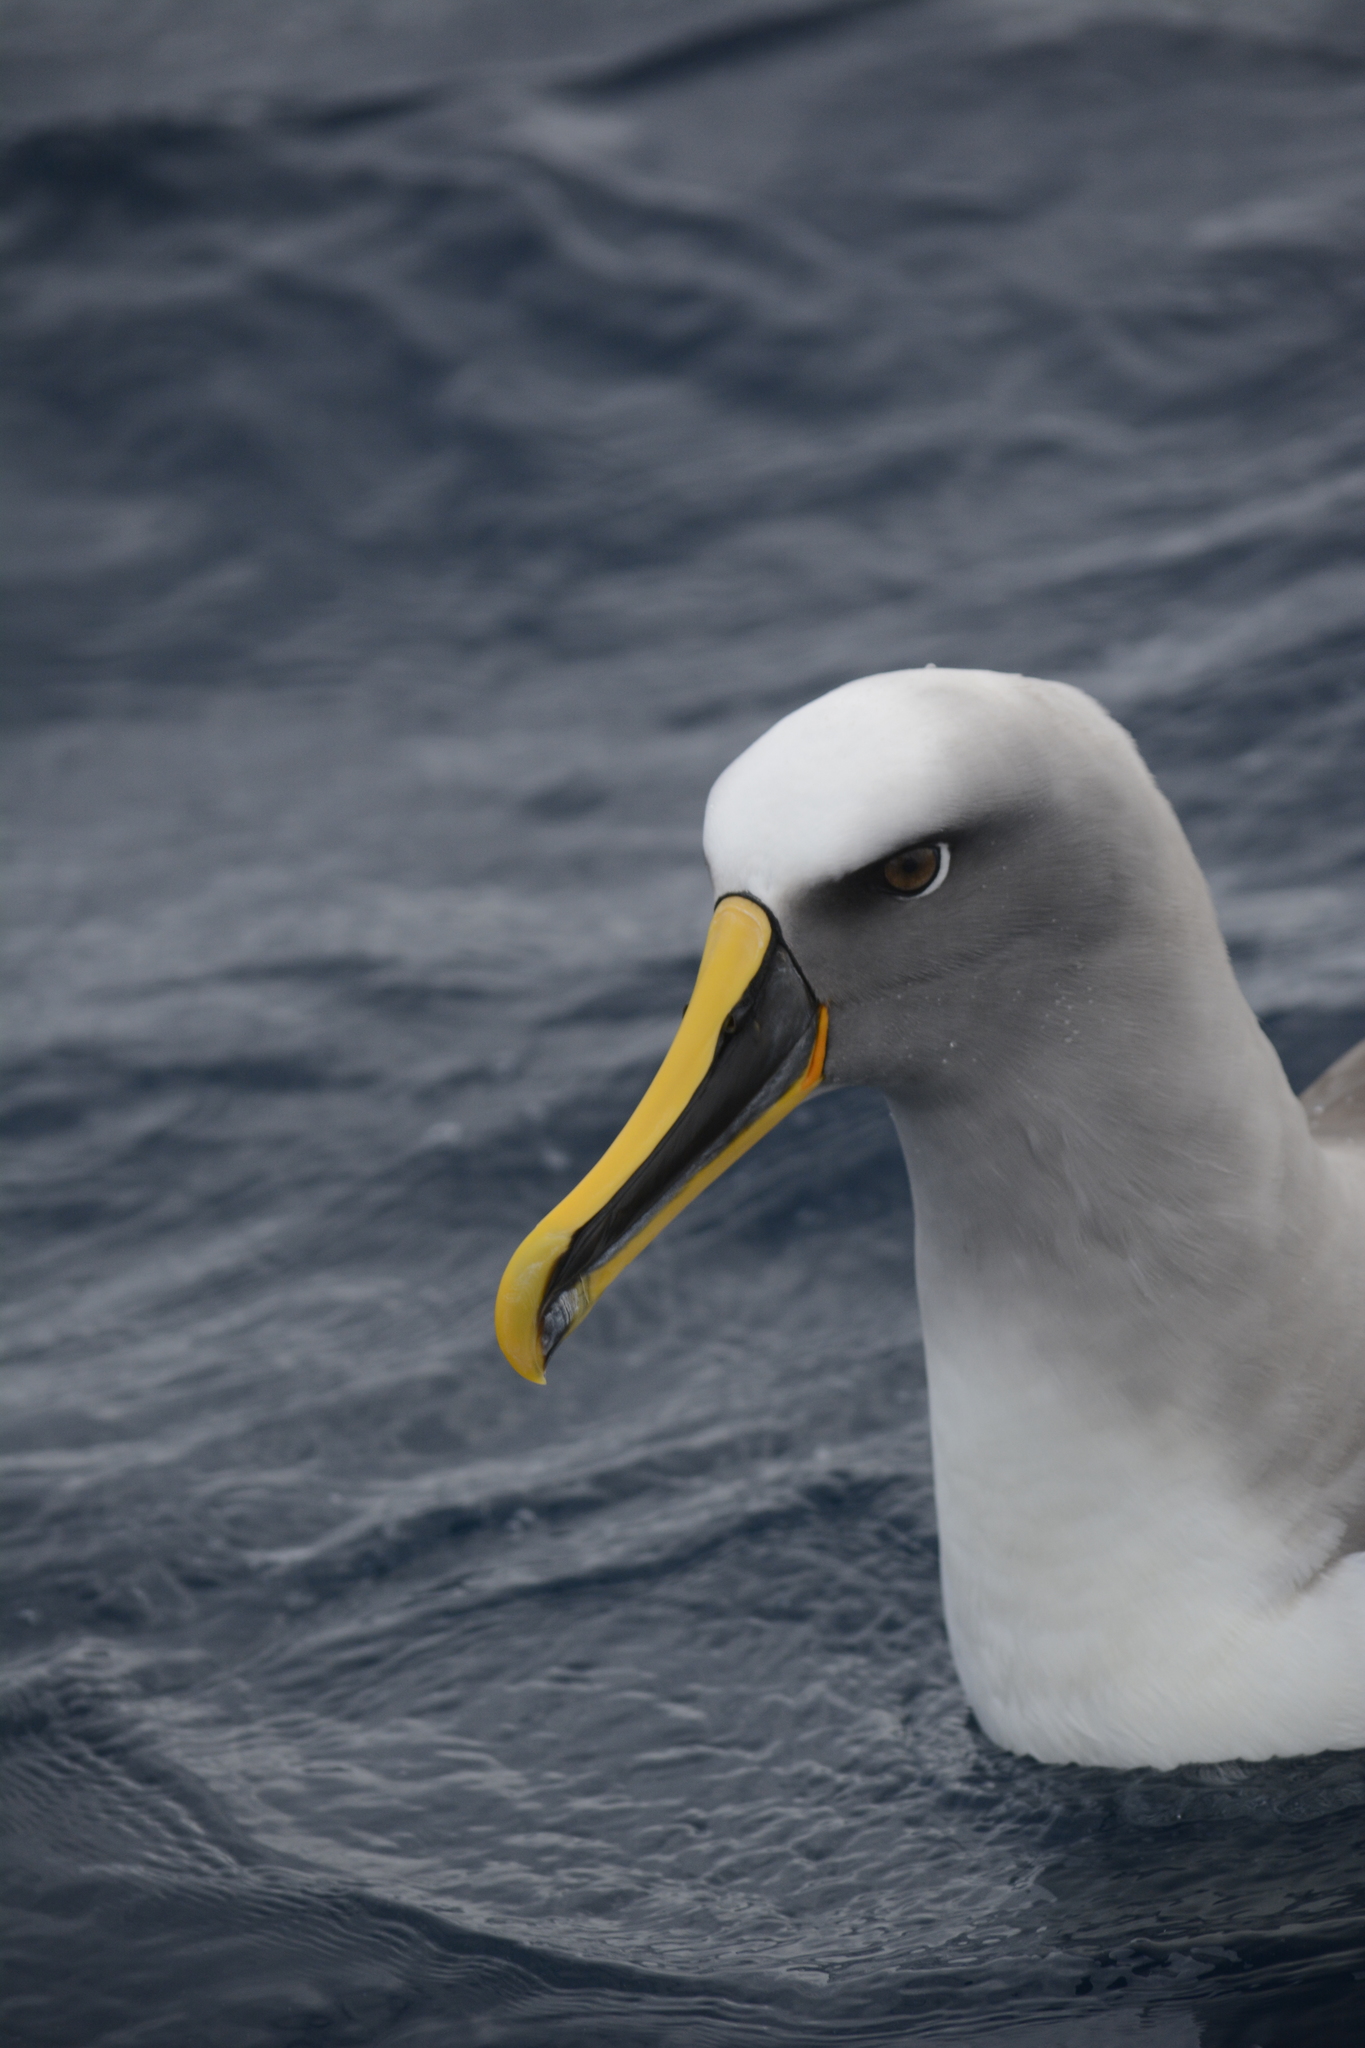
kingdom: Animalia
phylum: Chordata
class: Aves
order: Procellariiformes
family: Diomedeidae
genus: Thalassarche
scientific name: Thalassarche bulleri
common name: Buller's albatross
